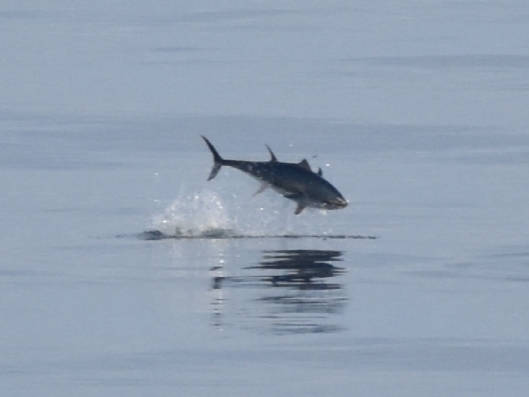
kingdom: Animalia
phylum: Chordata
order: Perciformes
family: Scombridae
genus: Thunnus
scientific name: Thunnus
